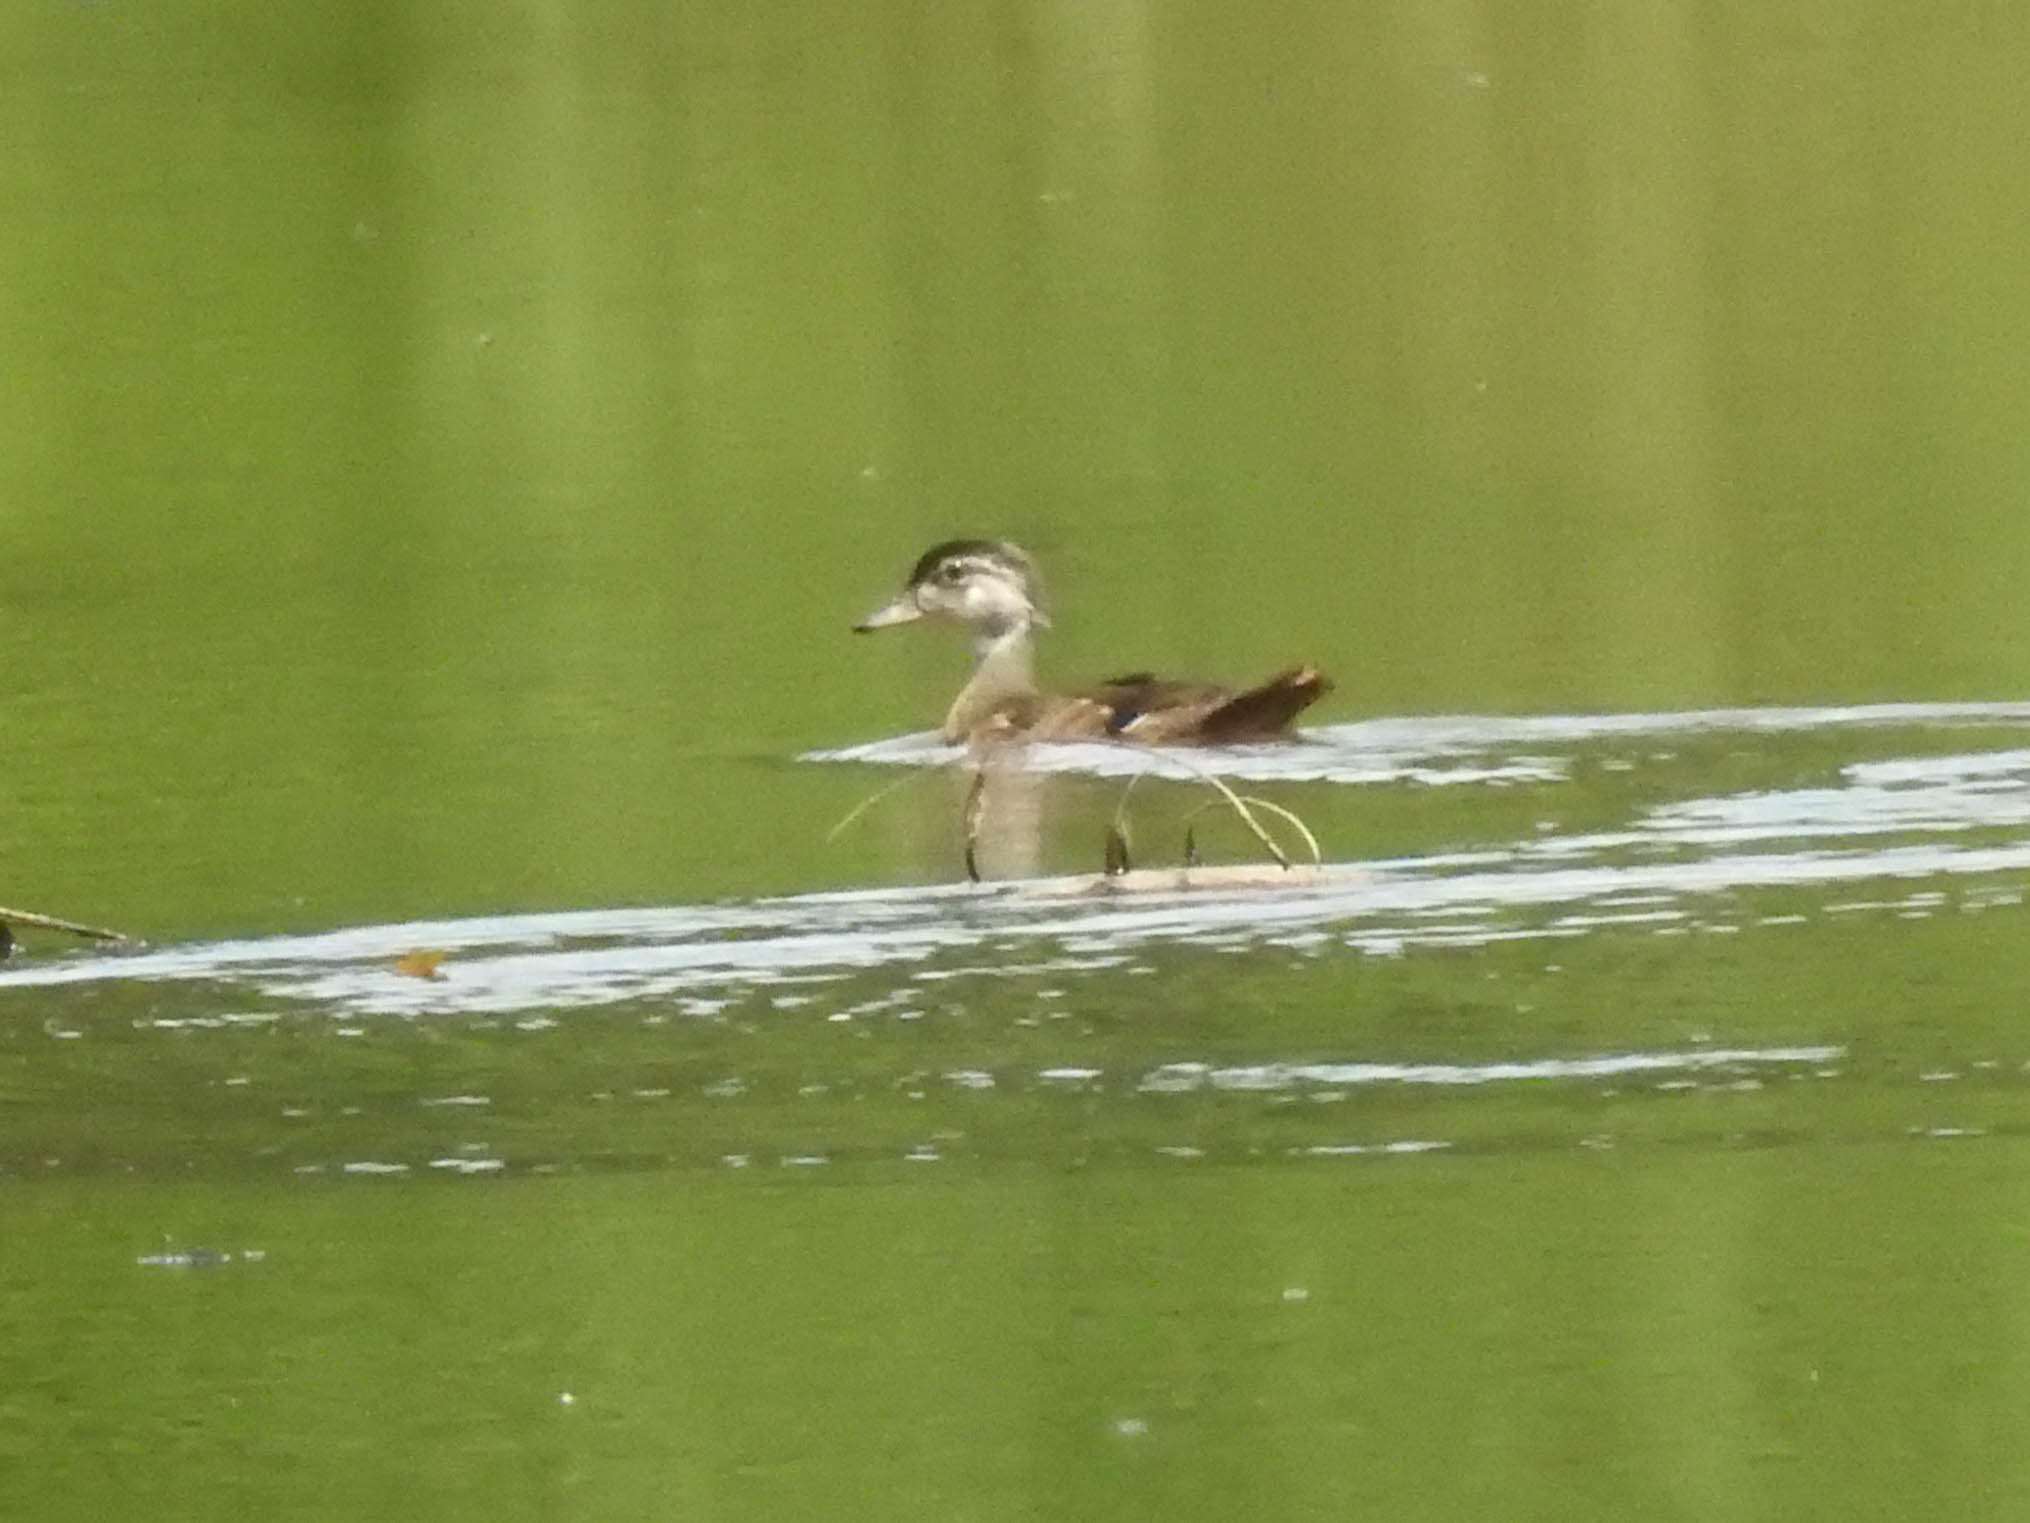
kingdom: Animalia
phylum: Chordata
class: Aves
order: Anseriformes
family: Anatidae
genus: Aix
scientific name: Aix sponsa
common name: Wood duck
